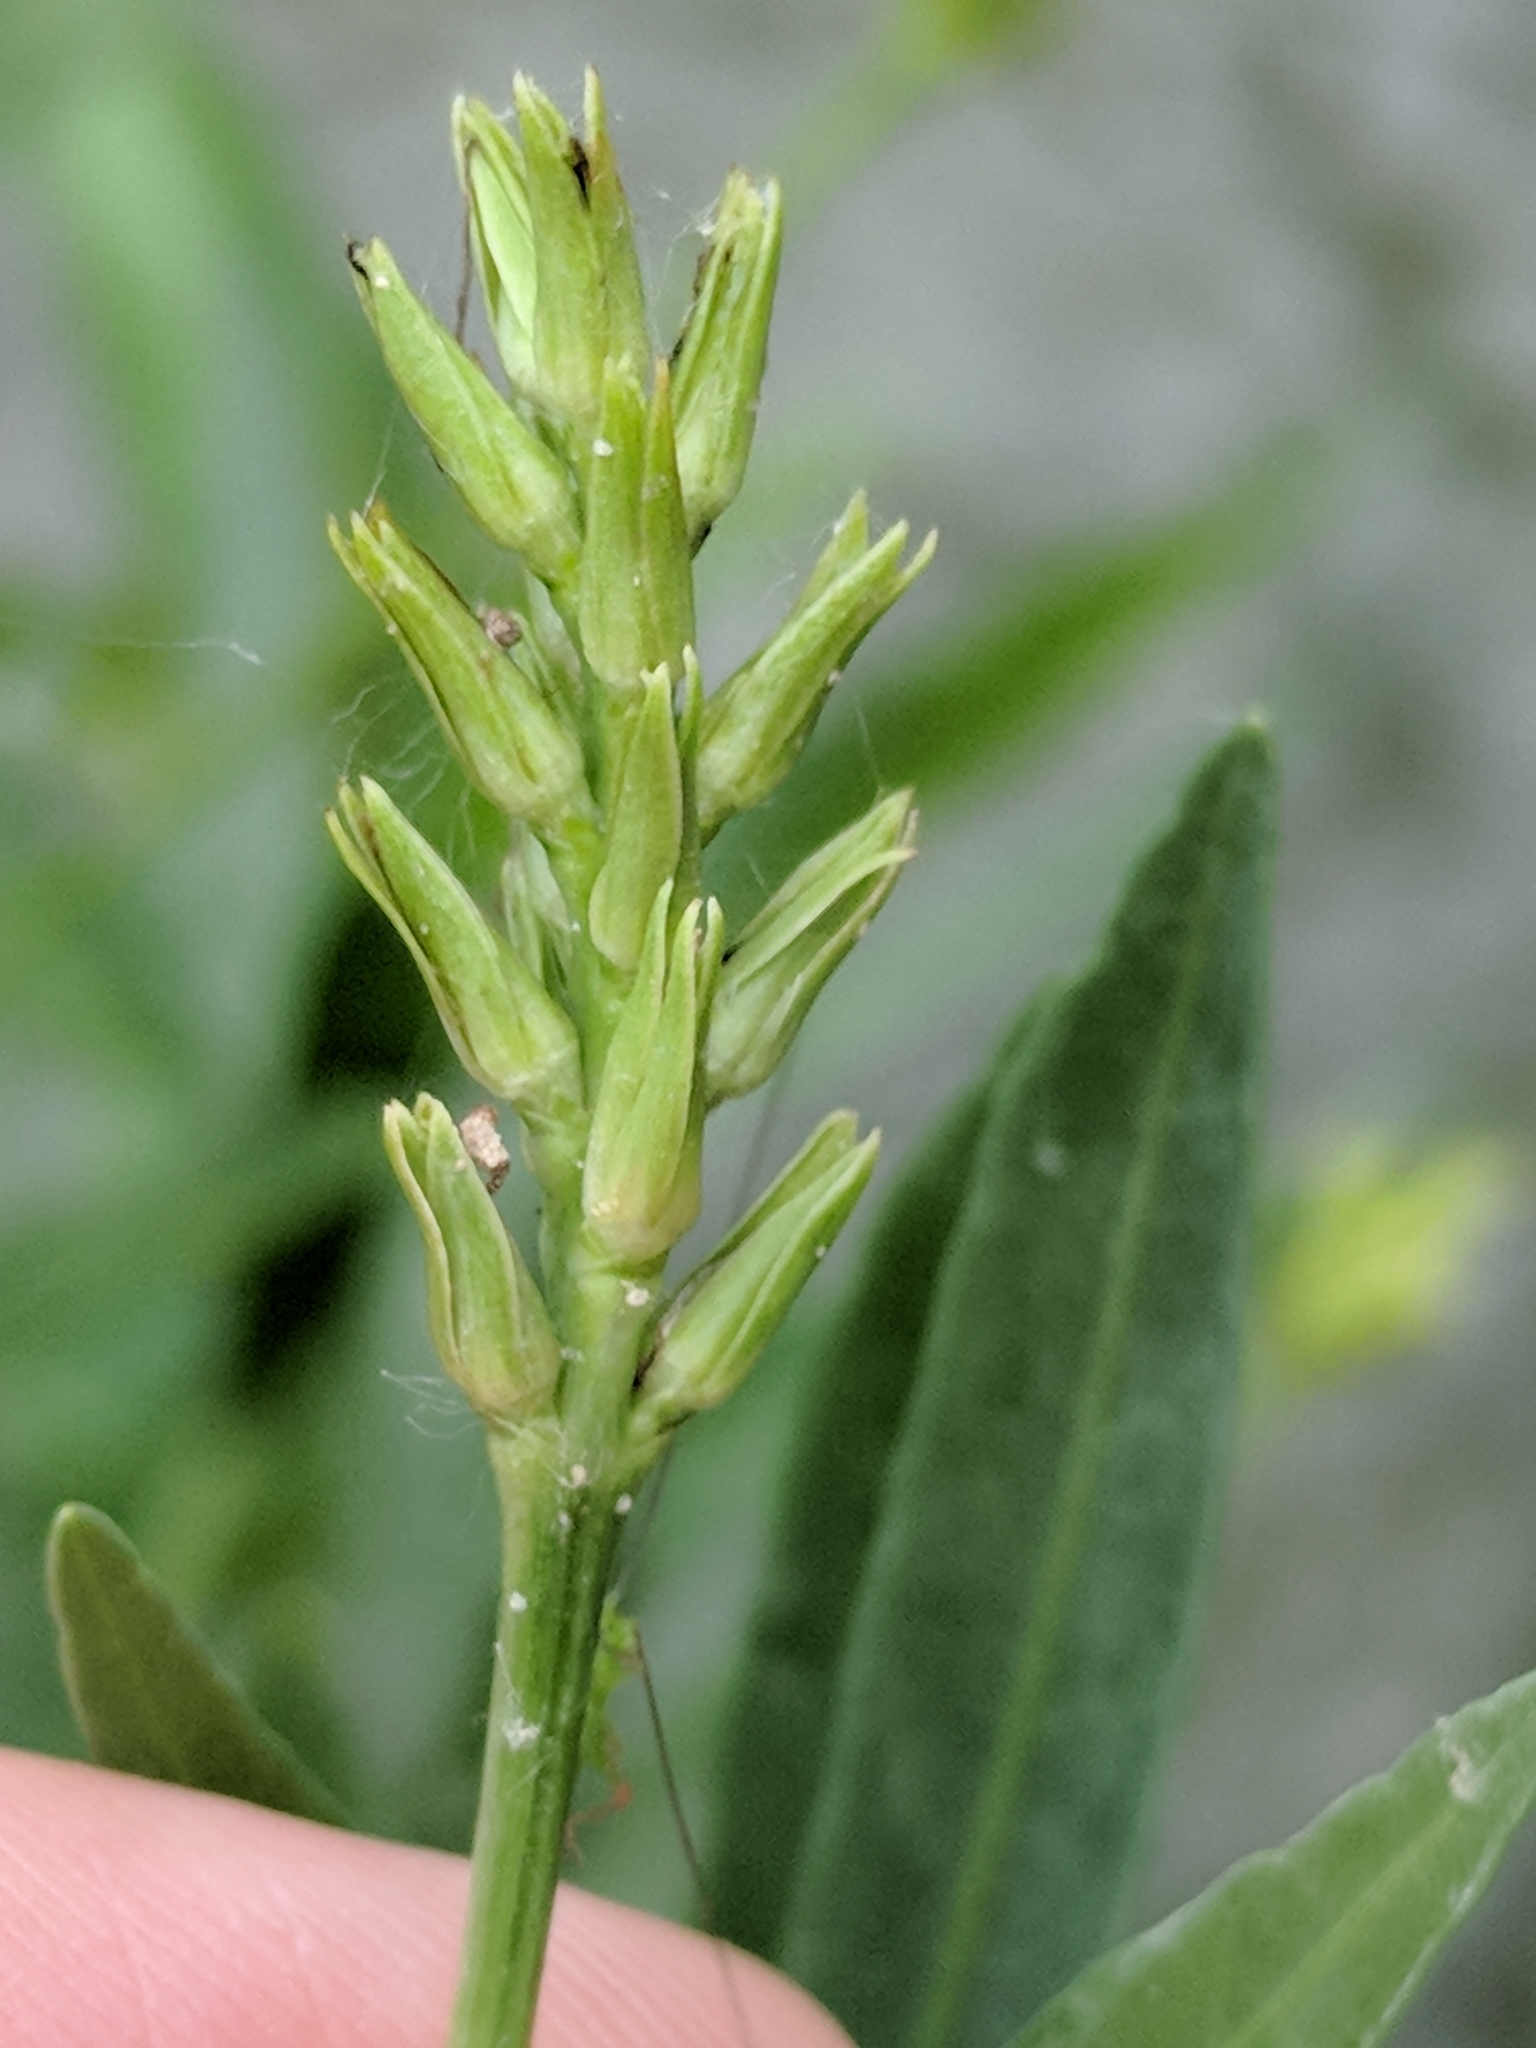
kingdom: Plantae
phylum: Tracheophyta
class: Magnoliopsida
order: Lamiales
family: Acanthaceae
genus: Dianthera
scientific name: Dianthera americana
